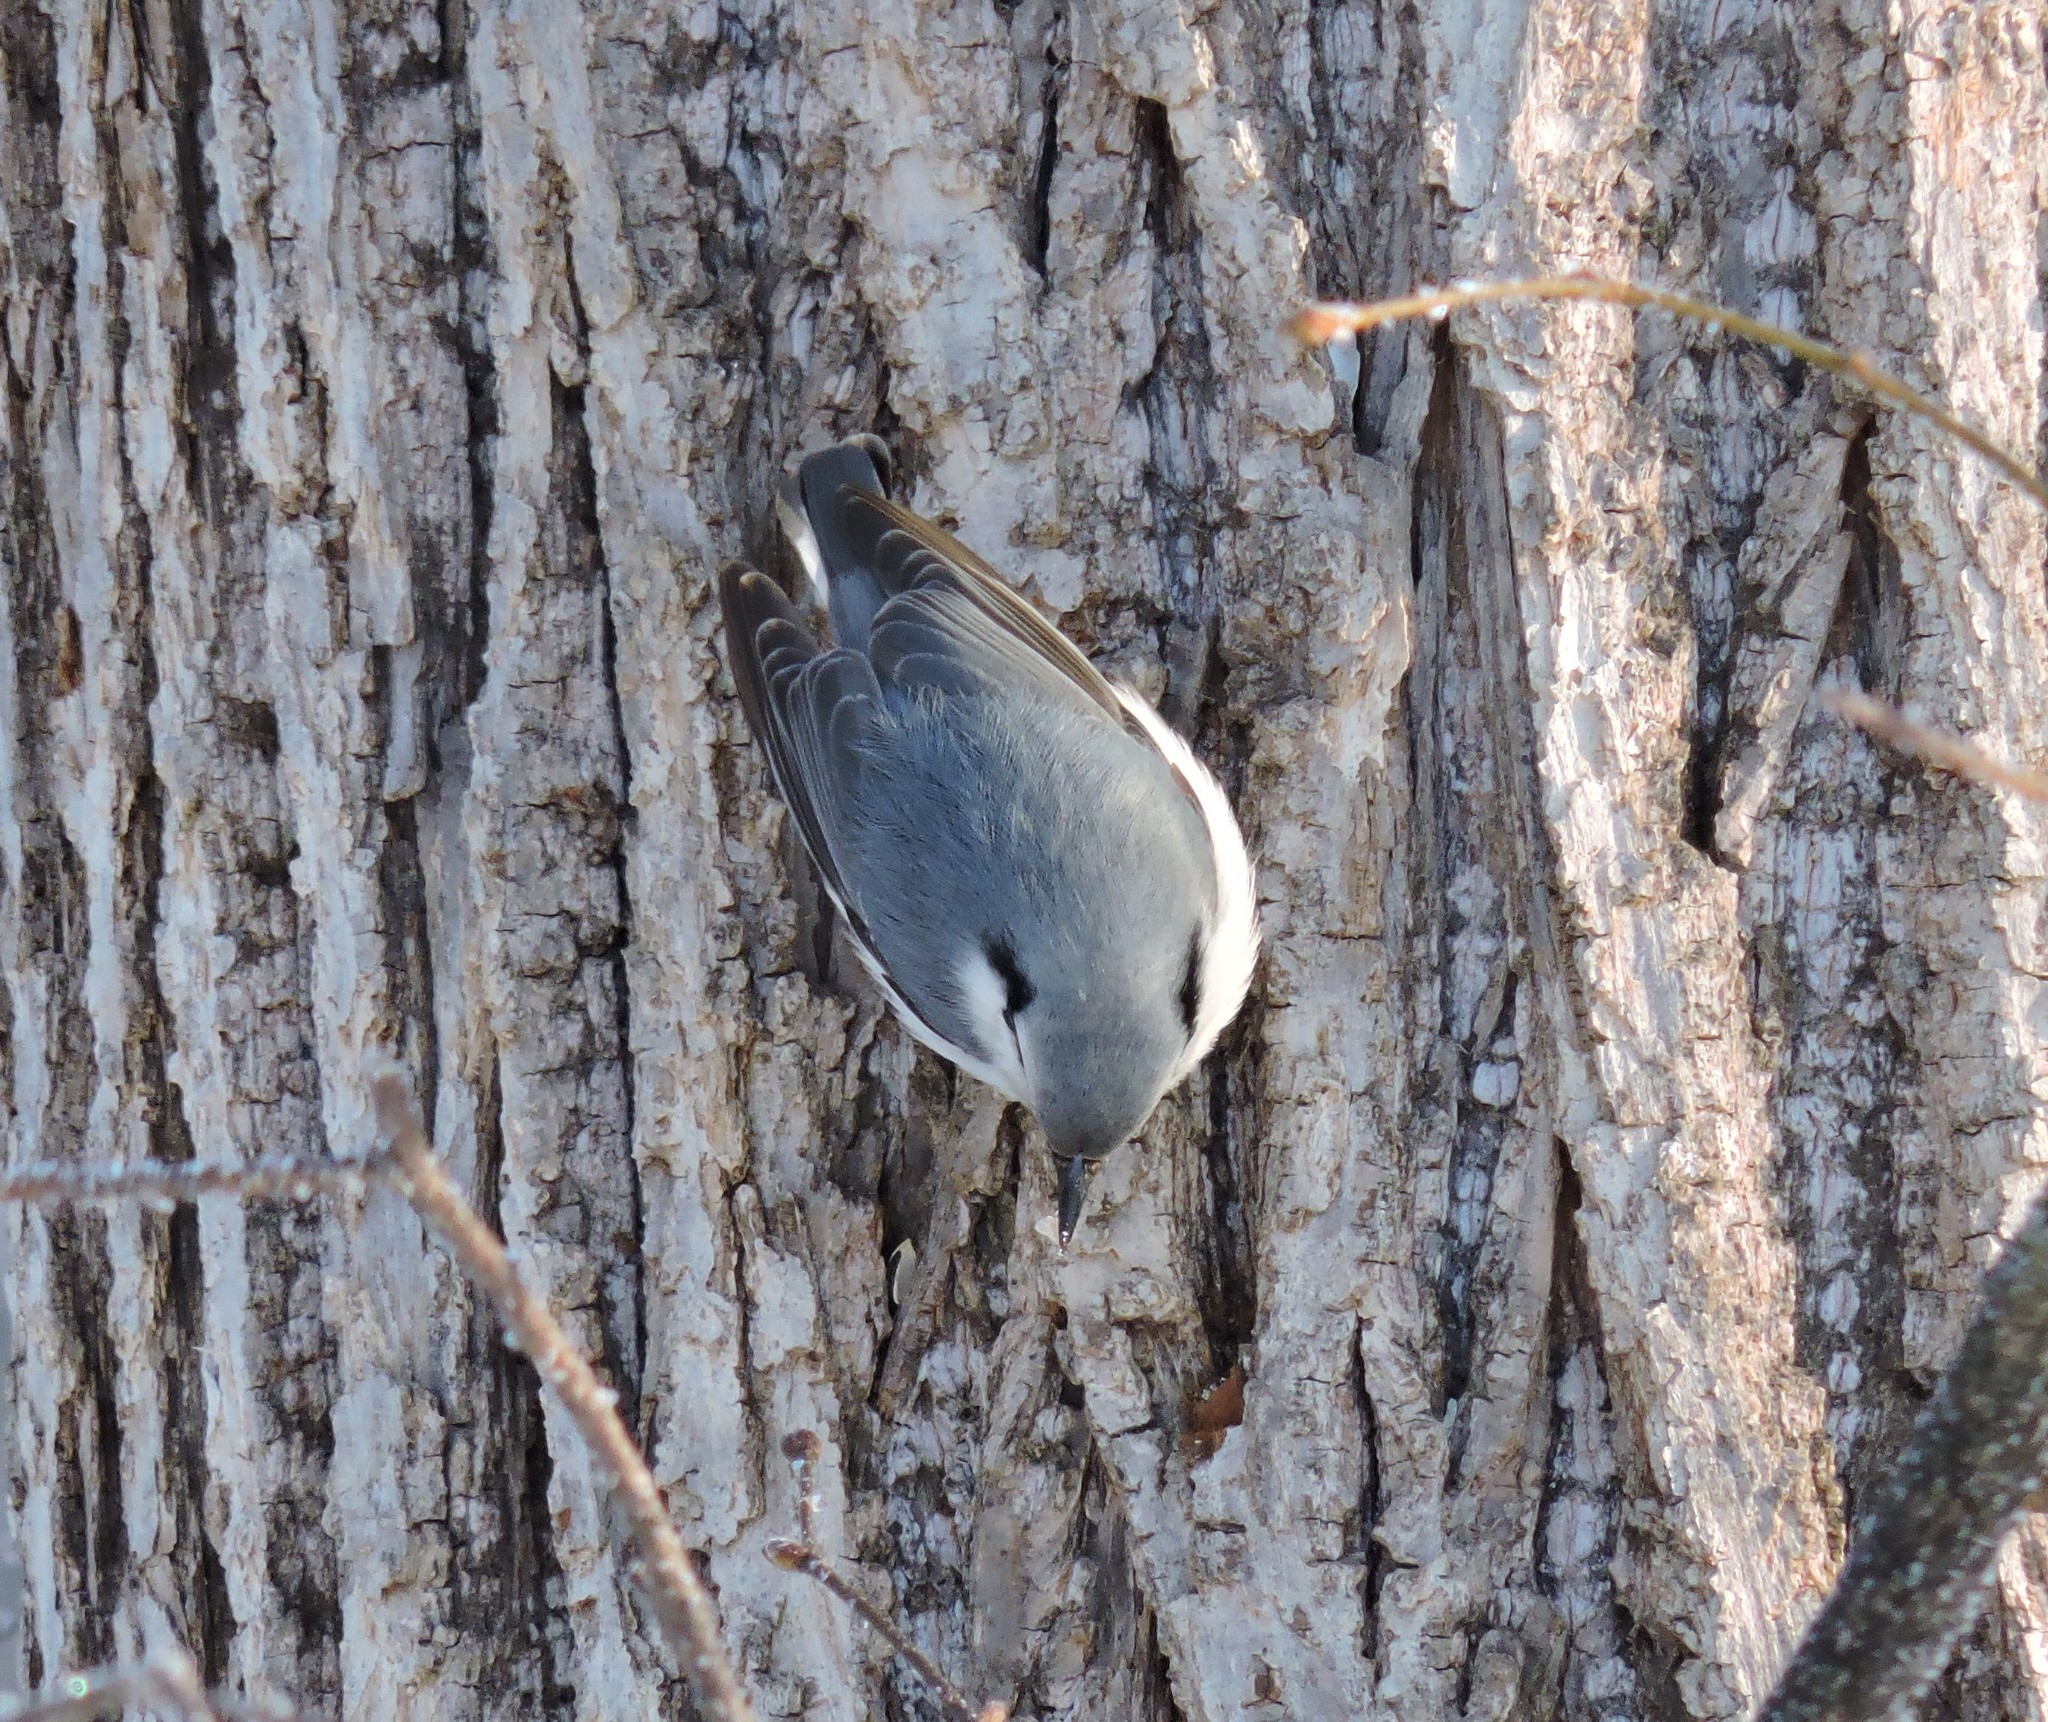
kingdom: Animalia
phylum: Chordata
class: Aves
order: Passeriformes
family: Sittidae
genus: Sitta
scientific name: Sitta europaea
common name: Eurasian nuthatch
